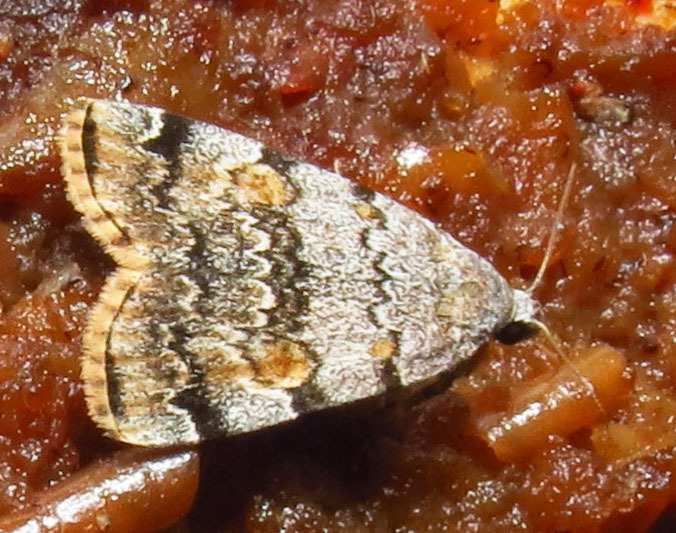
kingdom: Animalia
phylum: Arthropoda
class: Insecta
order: Lepidoptera
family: Erebidae
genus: Idia
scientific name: Idia americalis
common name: American idia moth
